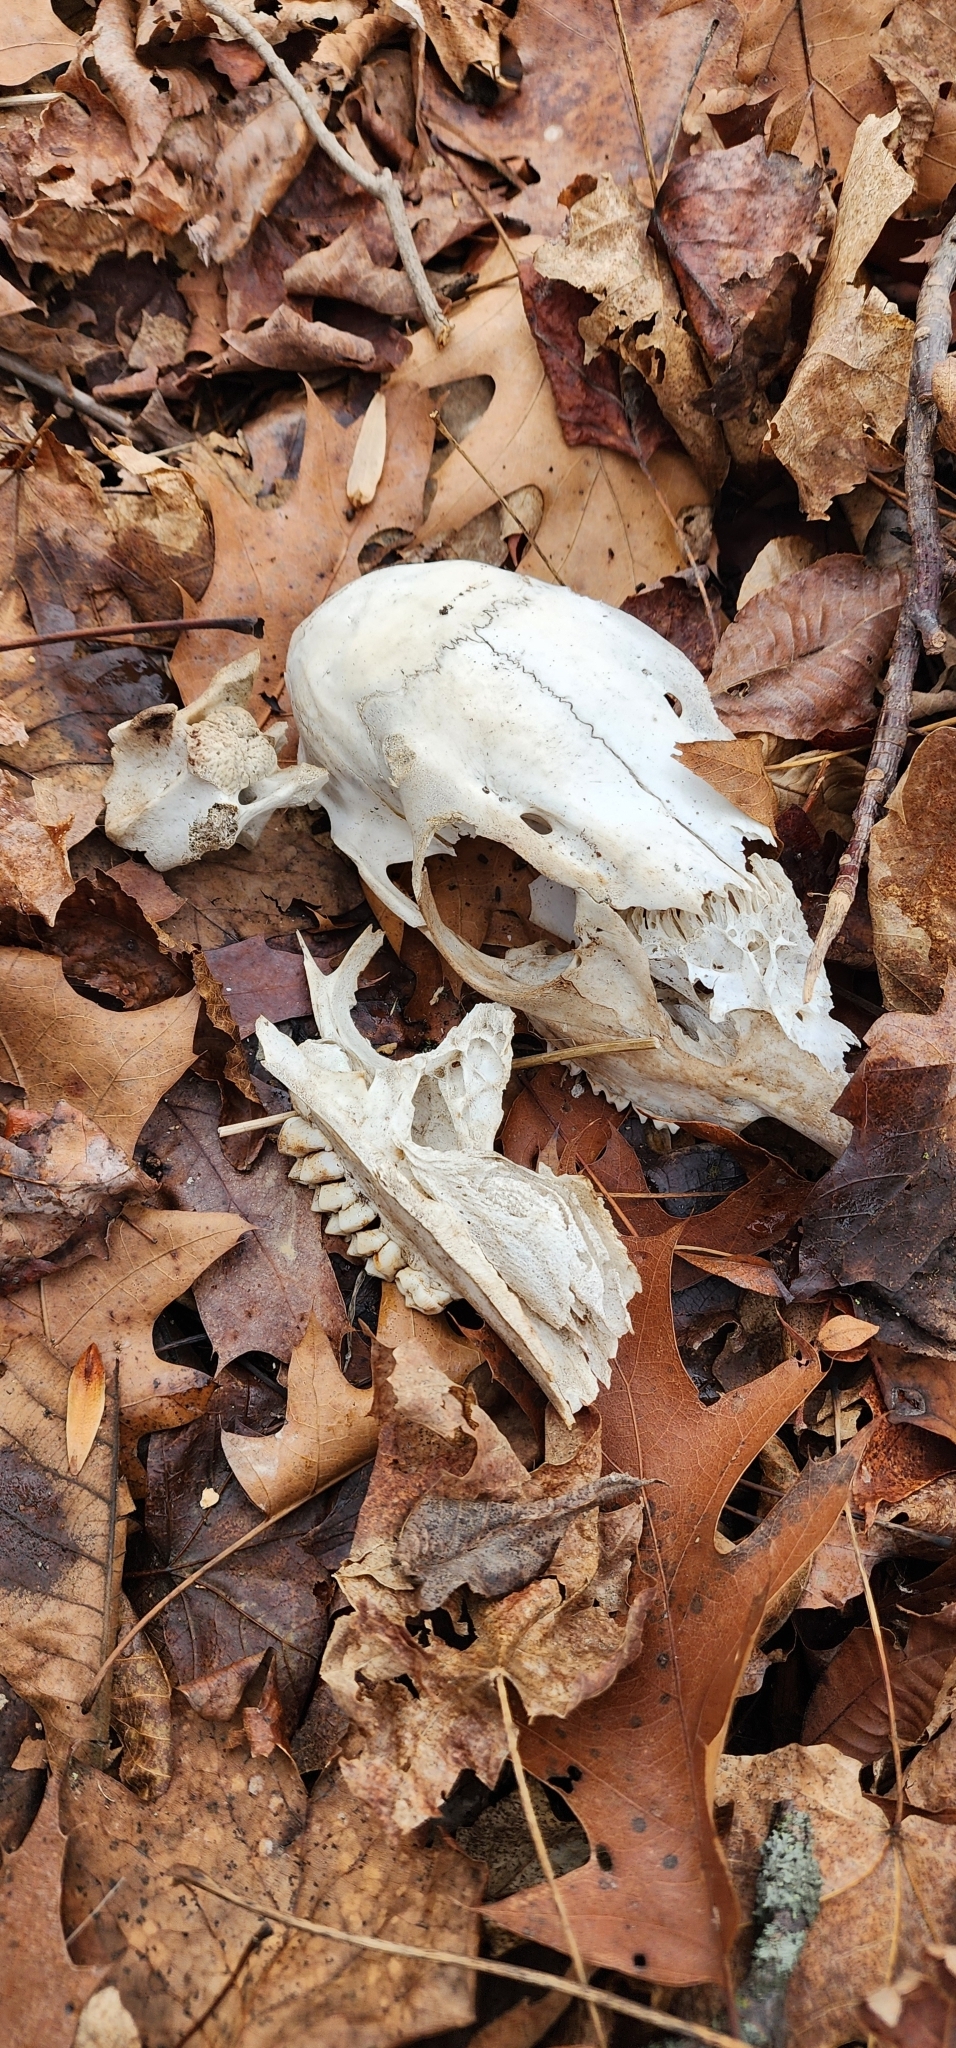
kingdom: Animalia
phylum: Chordata
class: Mammalia
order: Artiodactyla
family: Cervidae
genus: Odocoileus
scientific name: Odocoileus virginianus
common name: White-tailed deer
